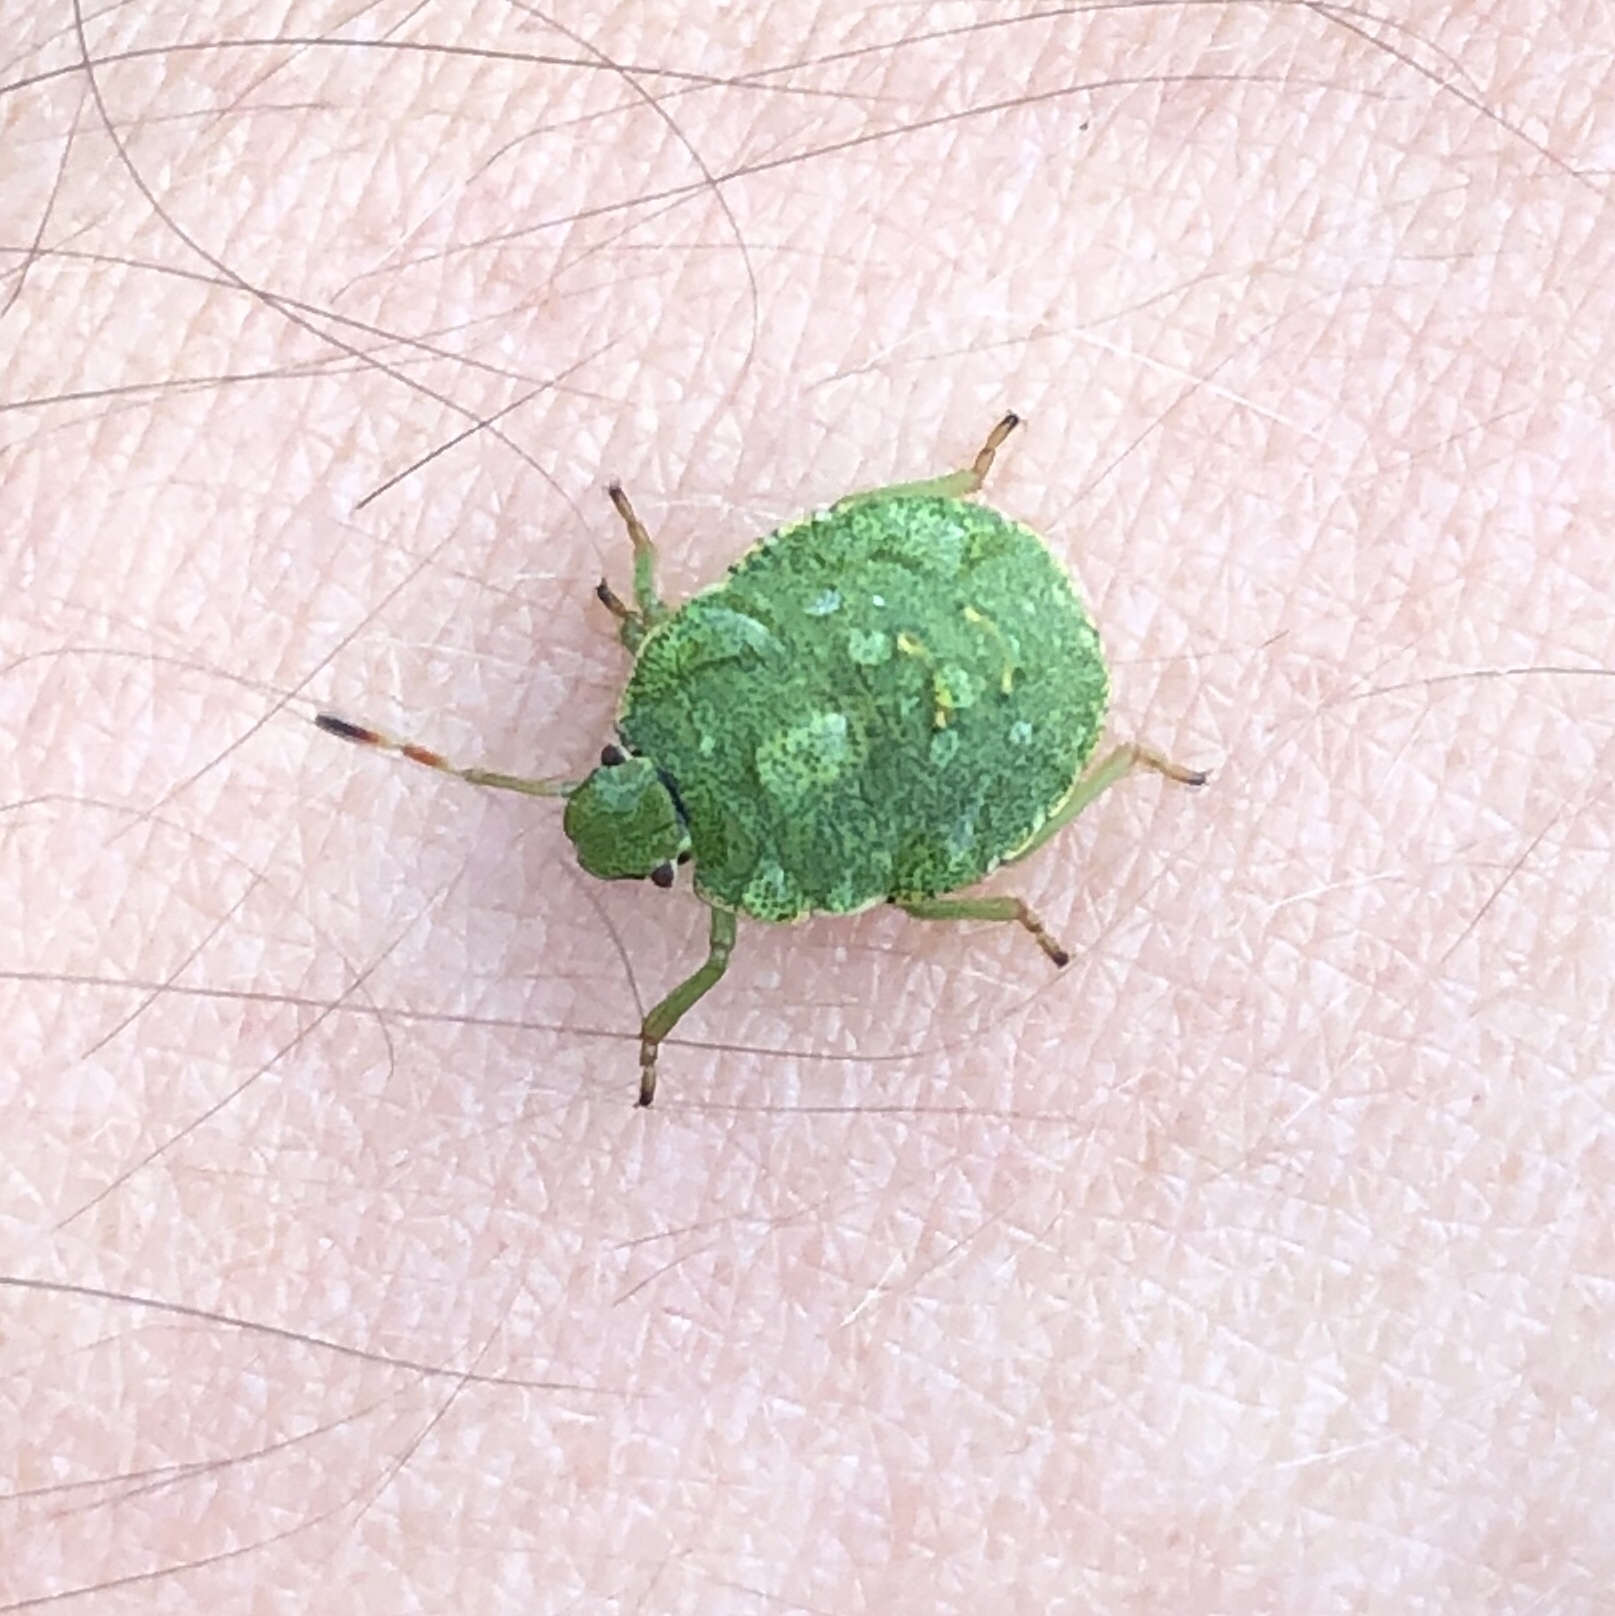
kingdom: Animalia
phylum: Arthropoda
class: Insecta
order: Hemiptera
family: Pentatomidae
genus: Palomena
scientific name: Palomena prasina
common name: Green shieldbug
